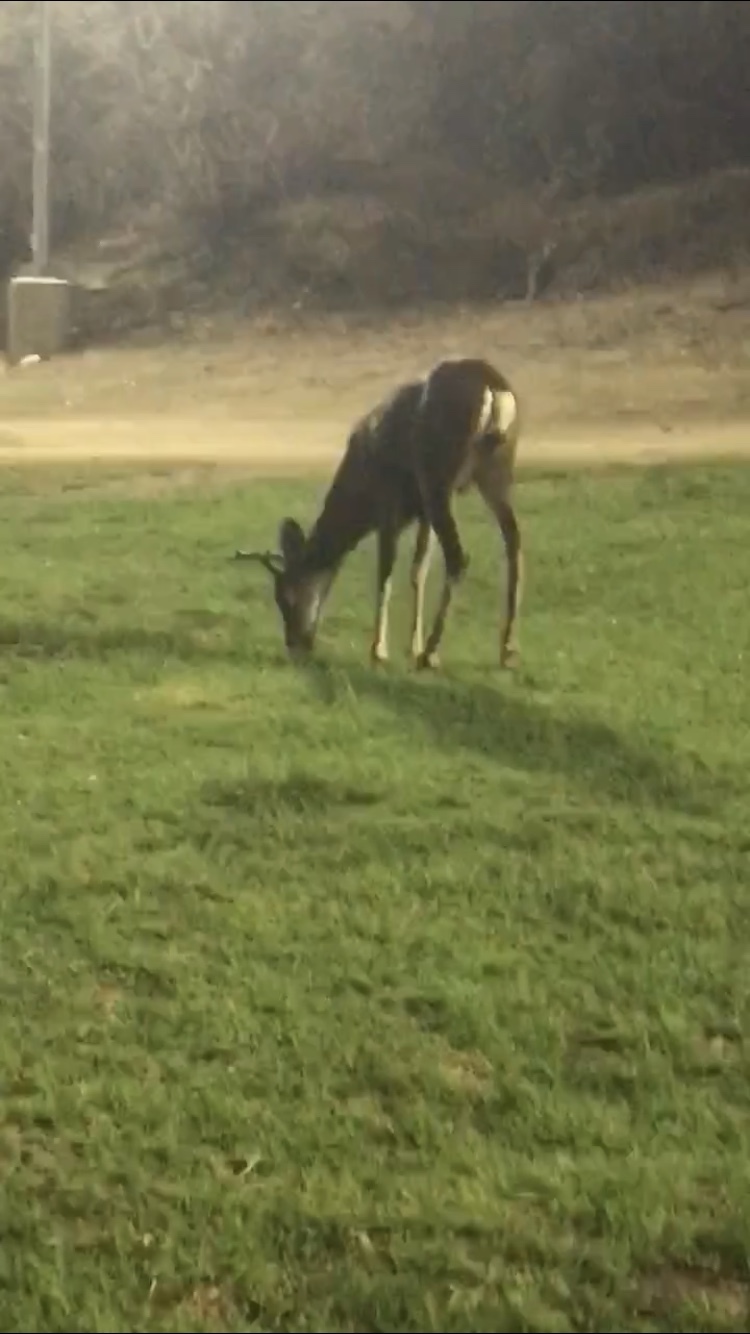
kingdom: Animalia
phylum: Chordata
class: Mammalia
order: Artiodactyla
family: Cervidae
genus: Odocoileus
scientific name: Odocoileus hemionus
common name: Mule deer
